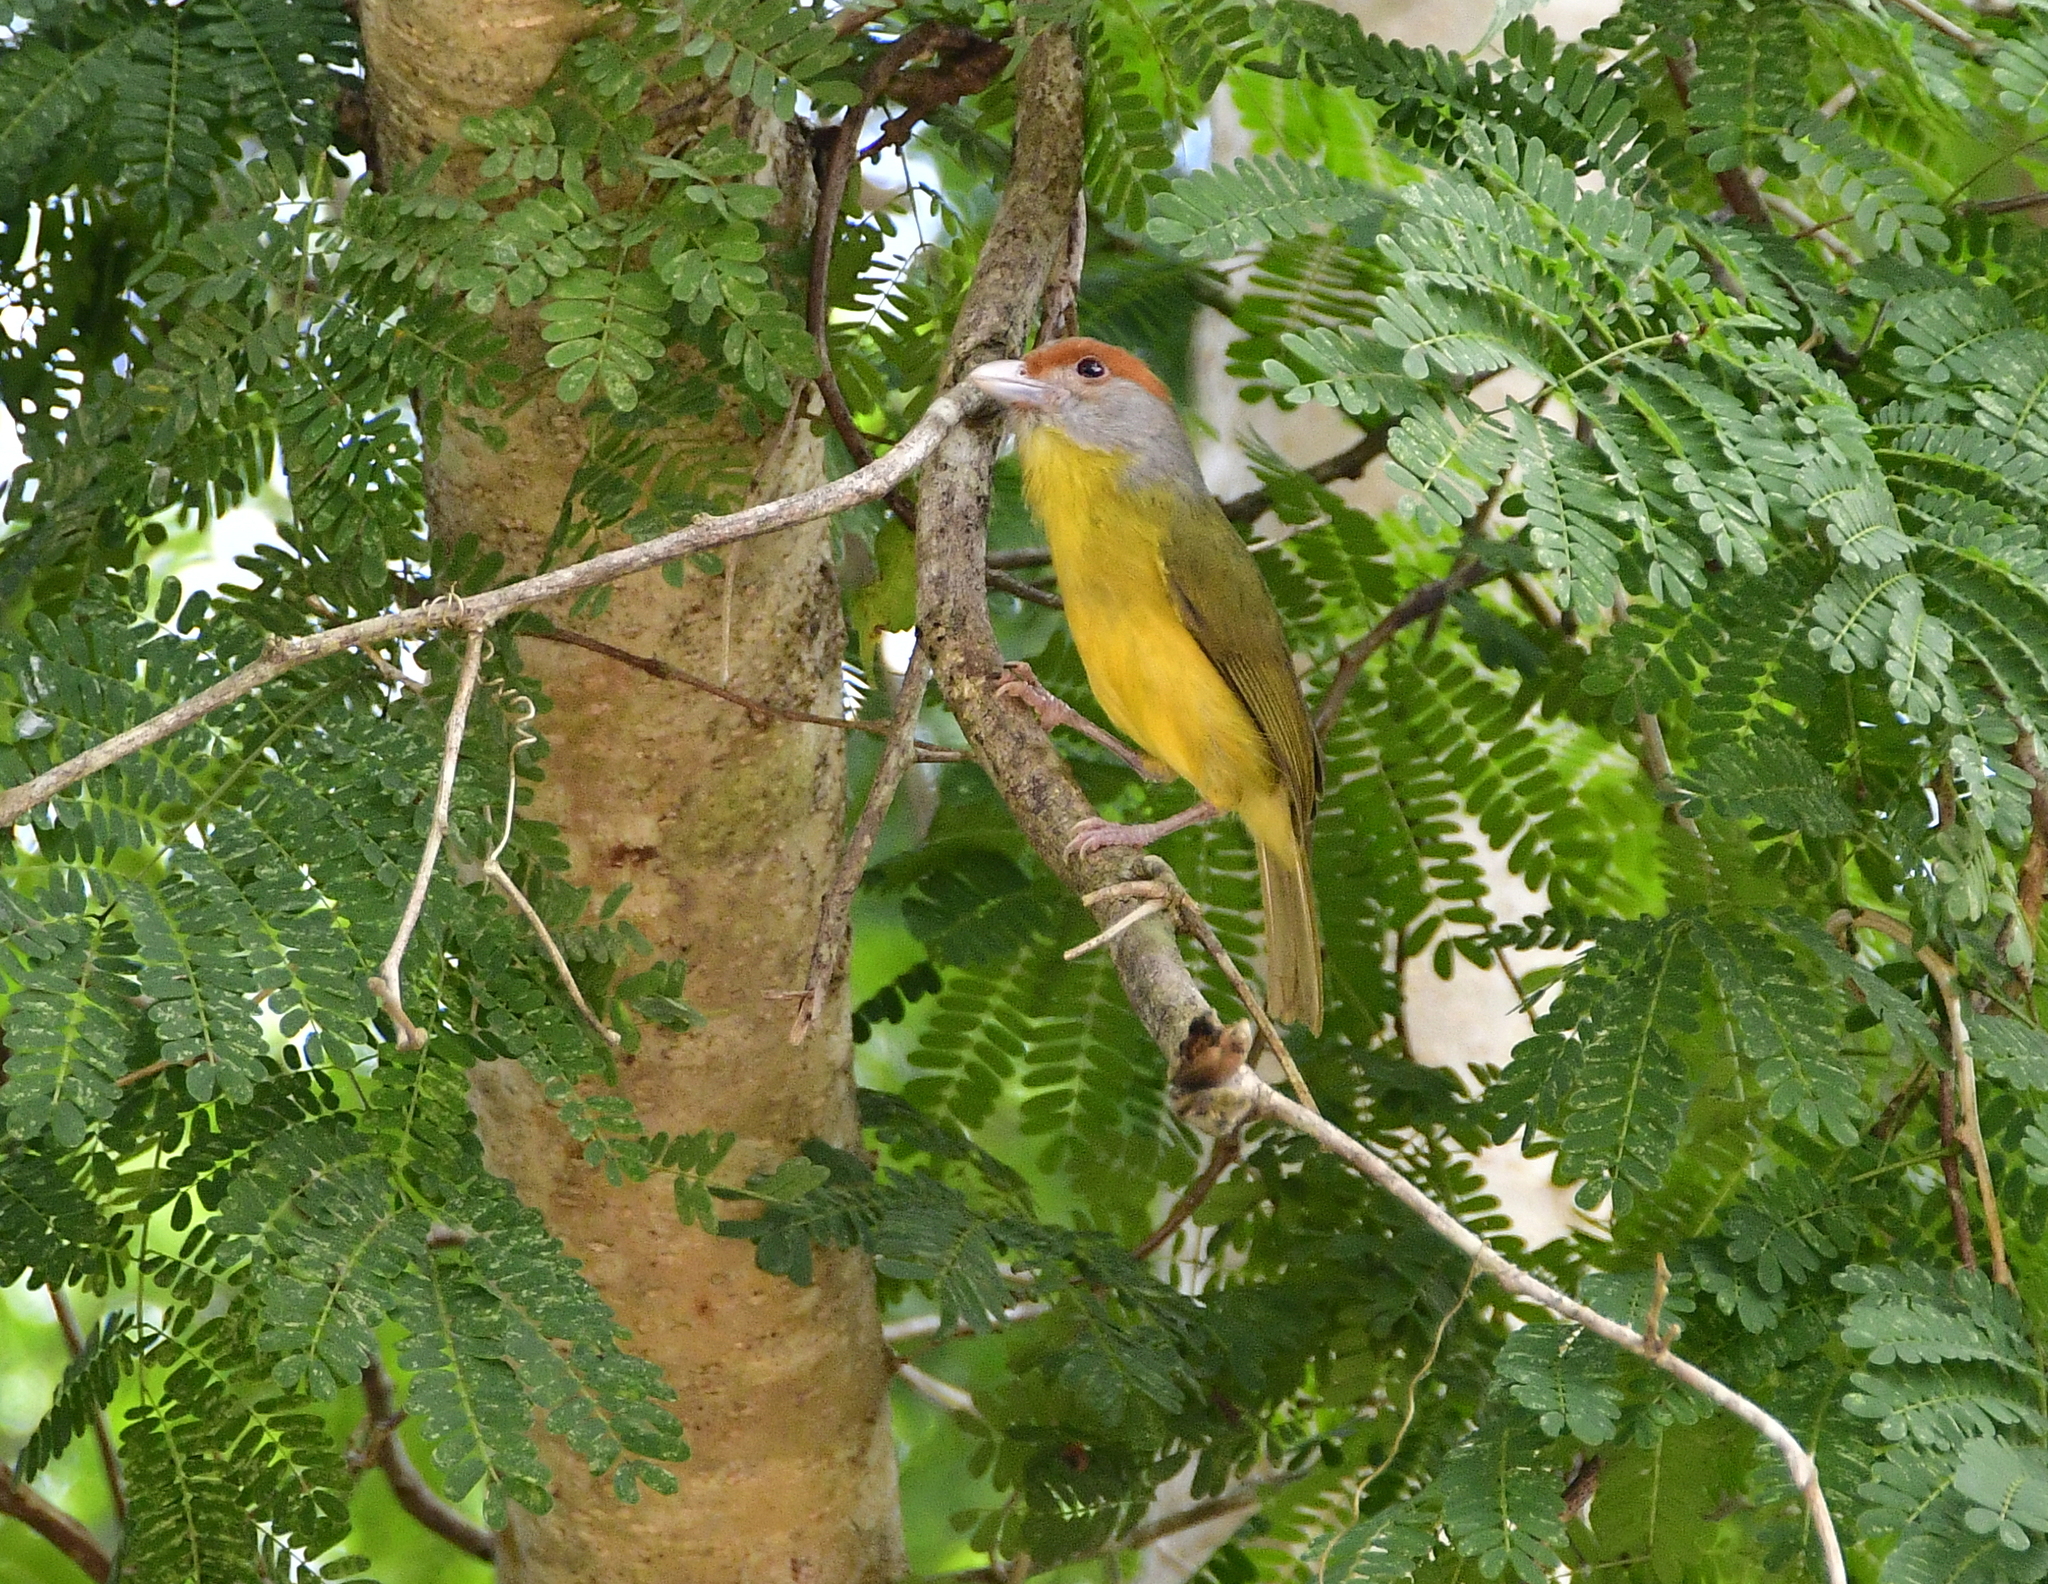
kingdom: Animalia
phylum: Chordata
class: Aves
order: Passeriformes
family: Vireonidae
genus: Cyclarhis
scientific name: Cyclarhis gujanensis
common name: Rufous-browed peppershrike
